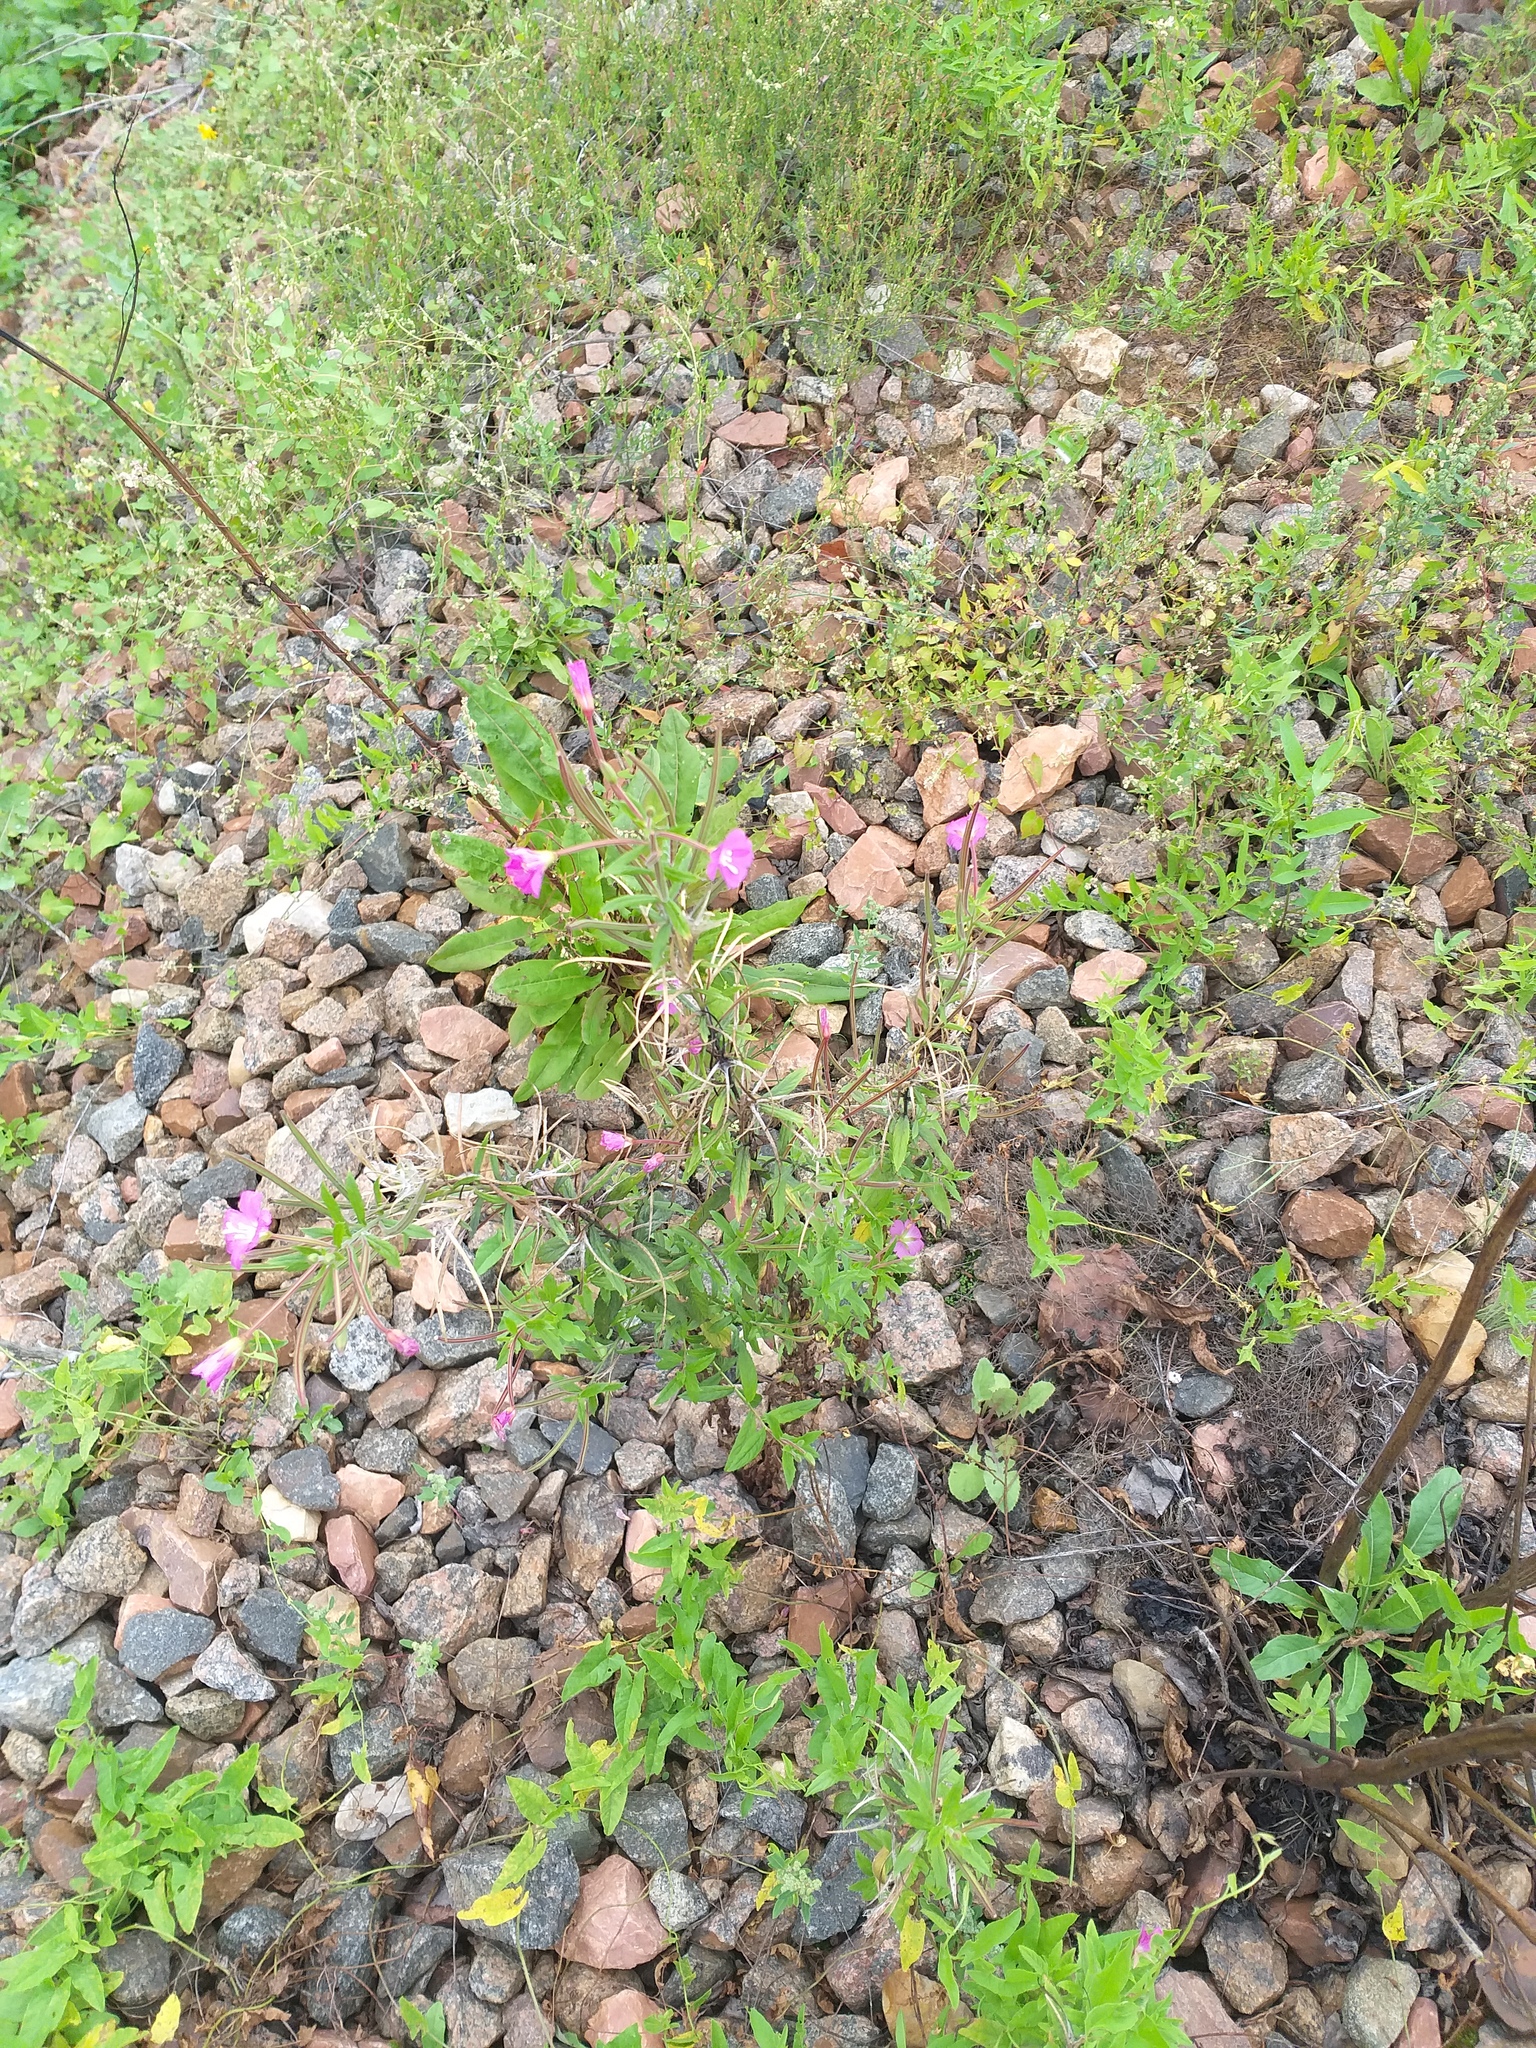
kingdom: Plantae
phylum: Tracheophyta
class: Magnoliopsida
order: Myrtales
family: Onagraceae
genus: Epilobium
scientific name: Epilobium hirsutum
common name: Great willowherb
